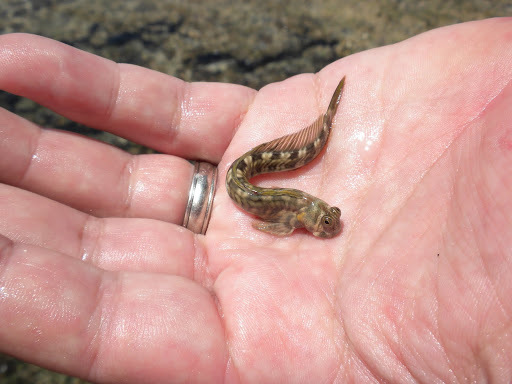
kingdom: Animalia
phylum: Chordata
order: Perciformes
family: Blenniidae
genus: Alticus
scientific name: Alticus kirkii
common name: Kirk's blenny
